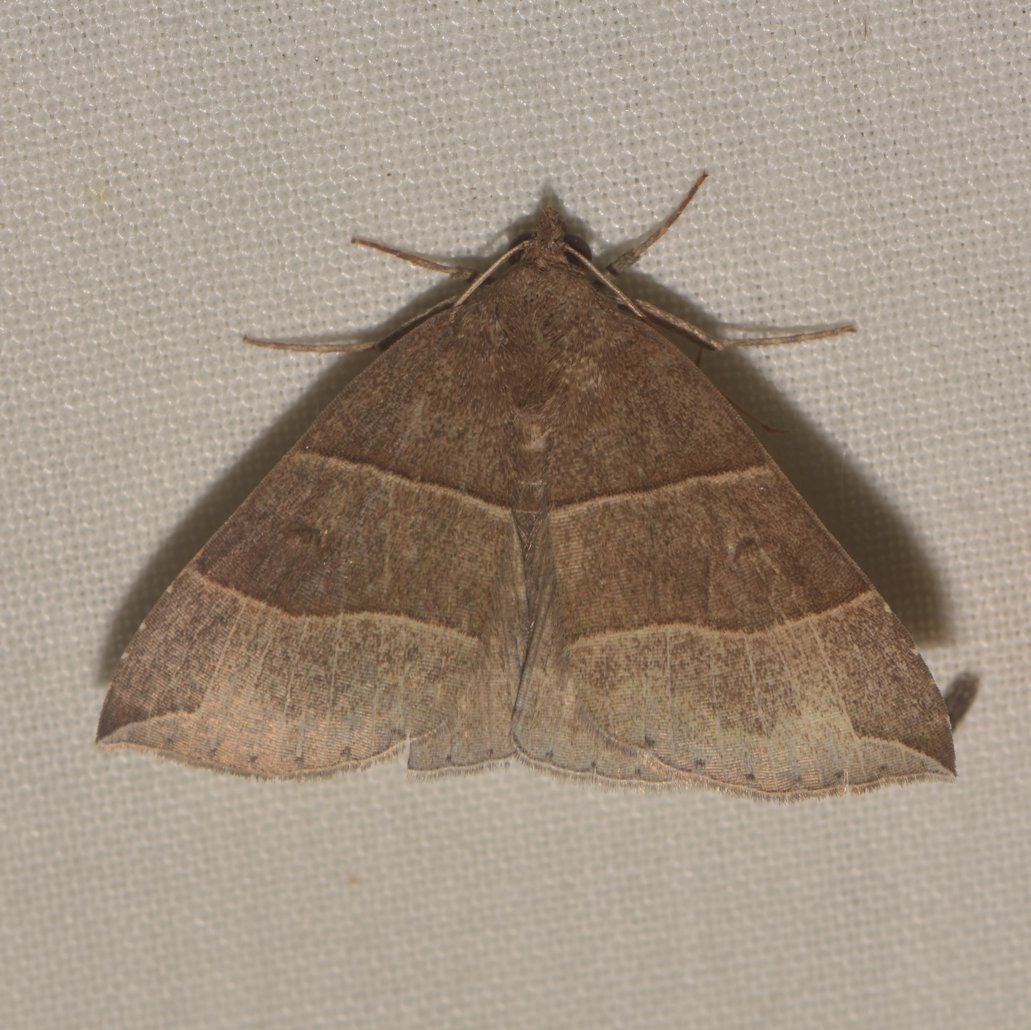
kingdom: Animalia
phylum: Arthropoda
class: Insecta
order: Lepidoptera
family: Erebidae
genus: Parallelia
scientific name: Parallelia bistriaris
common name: Maple looper moth
